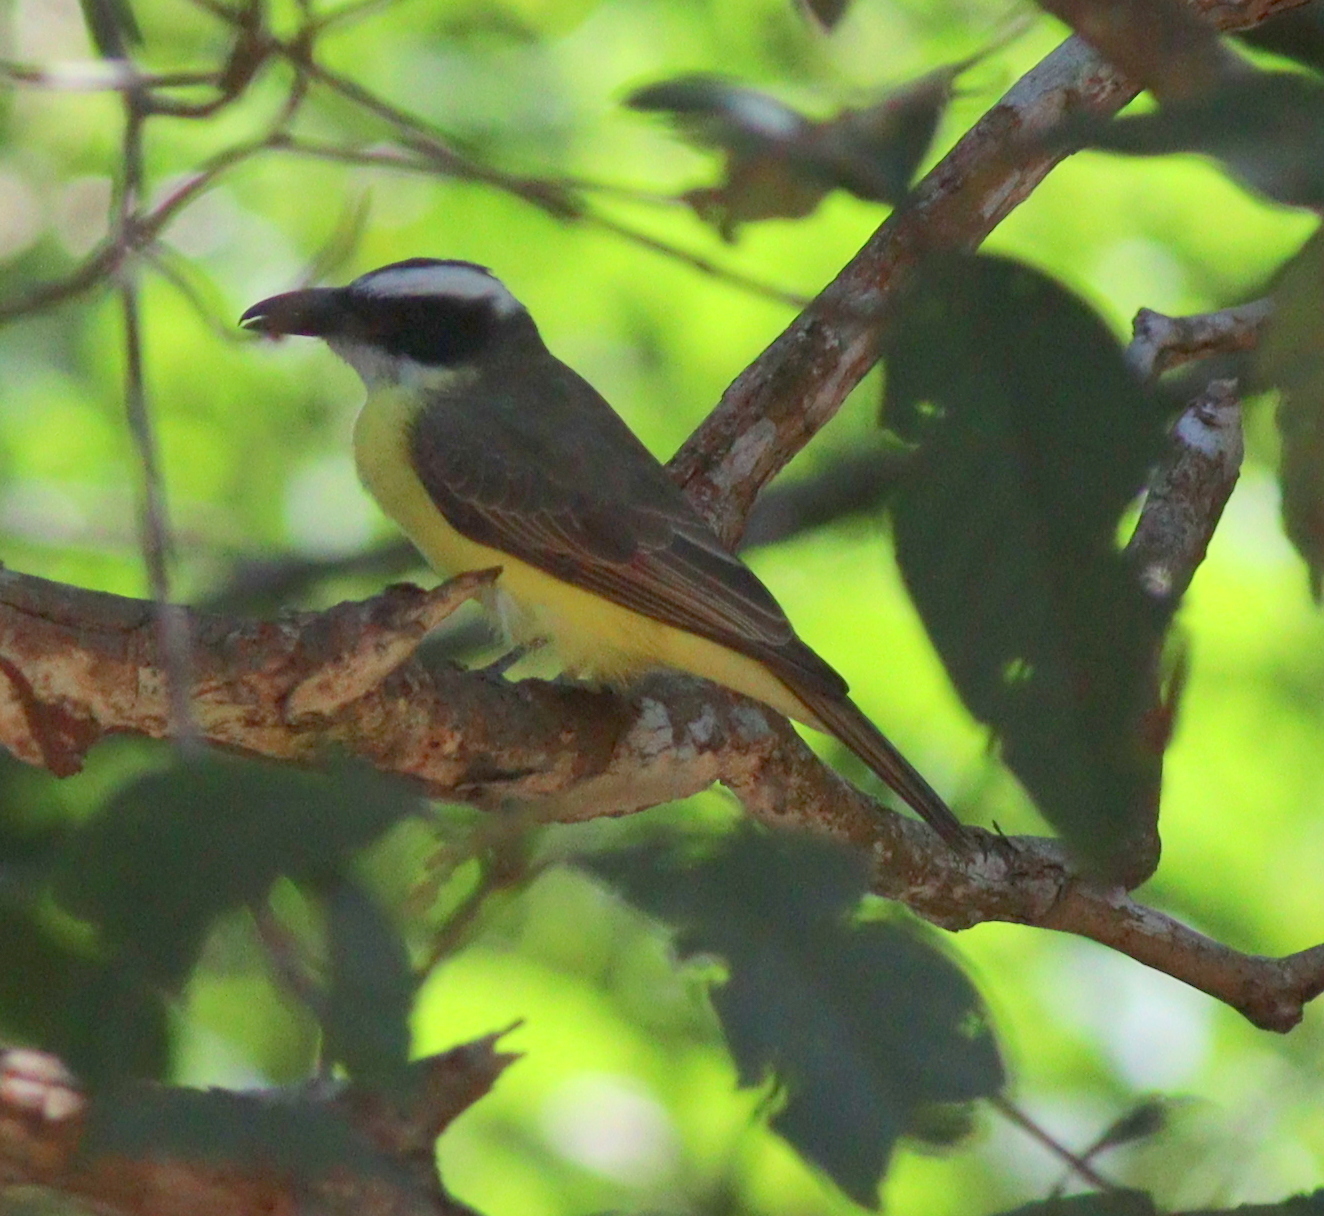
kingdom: Animalia
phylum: Chordata
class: Aves
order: Passeriformes
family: Tyrannidae
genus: Megarynchus
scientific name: Megarynchus pitangua
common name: Boat-billed flycatcher
